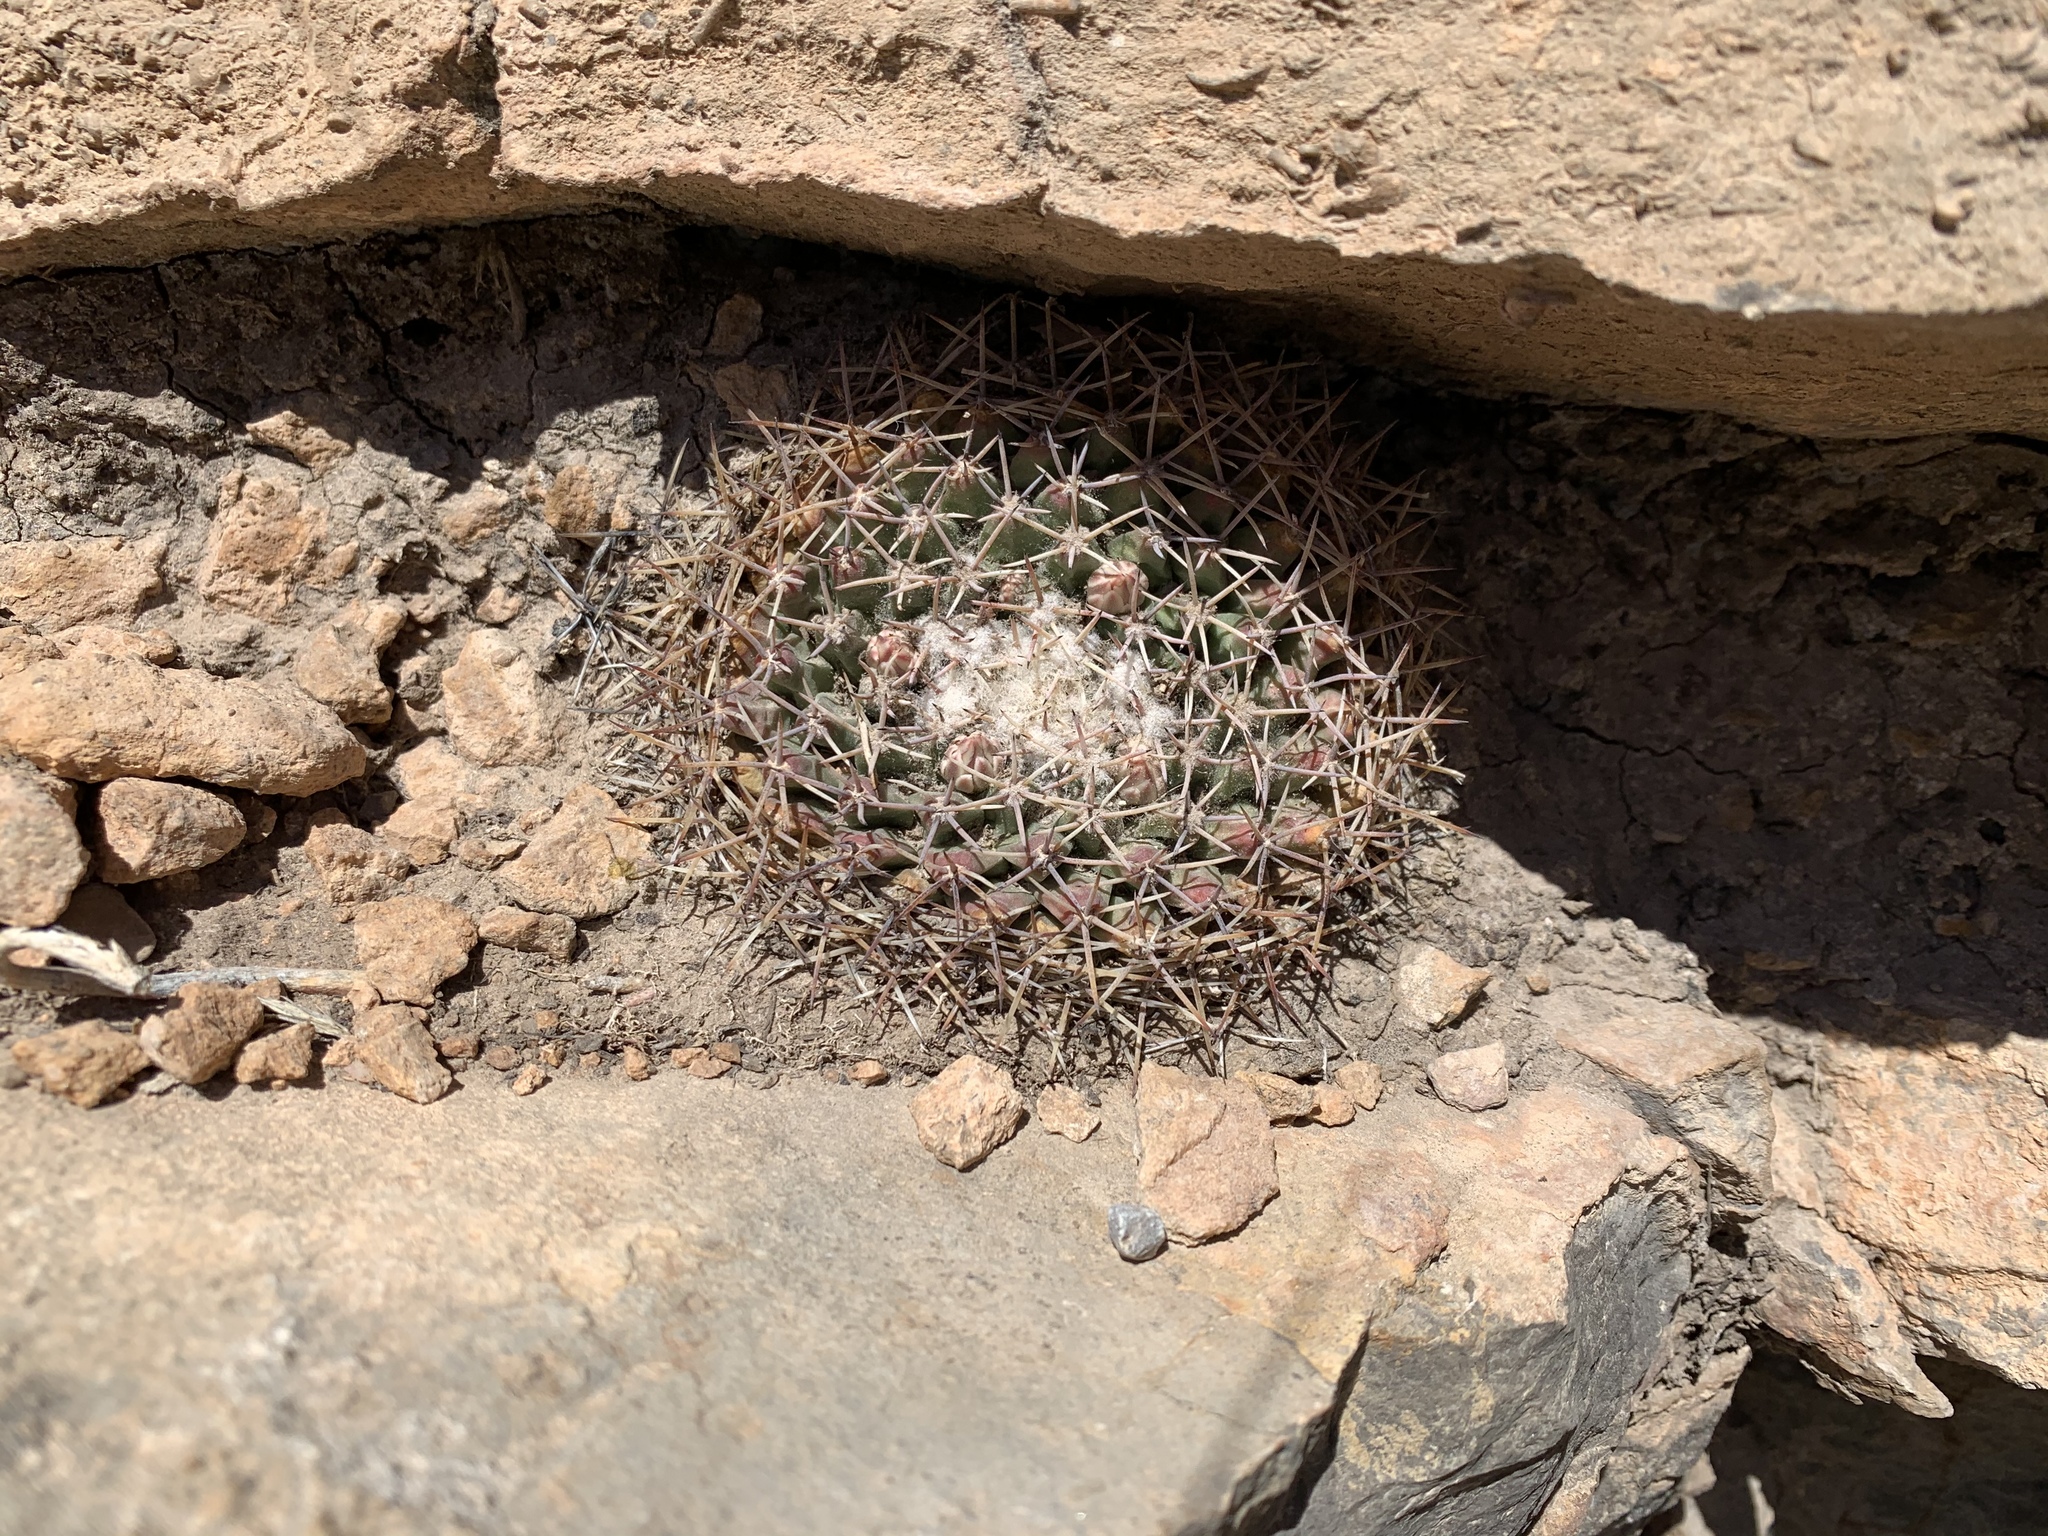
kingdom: Plantae
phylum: Tracheophyta
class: Magnoliopsida
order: Caryophyllales
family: Cactaceae
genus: Mammillaria
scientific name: Mammillaria heyderi
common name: Little nipple cactus
